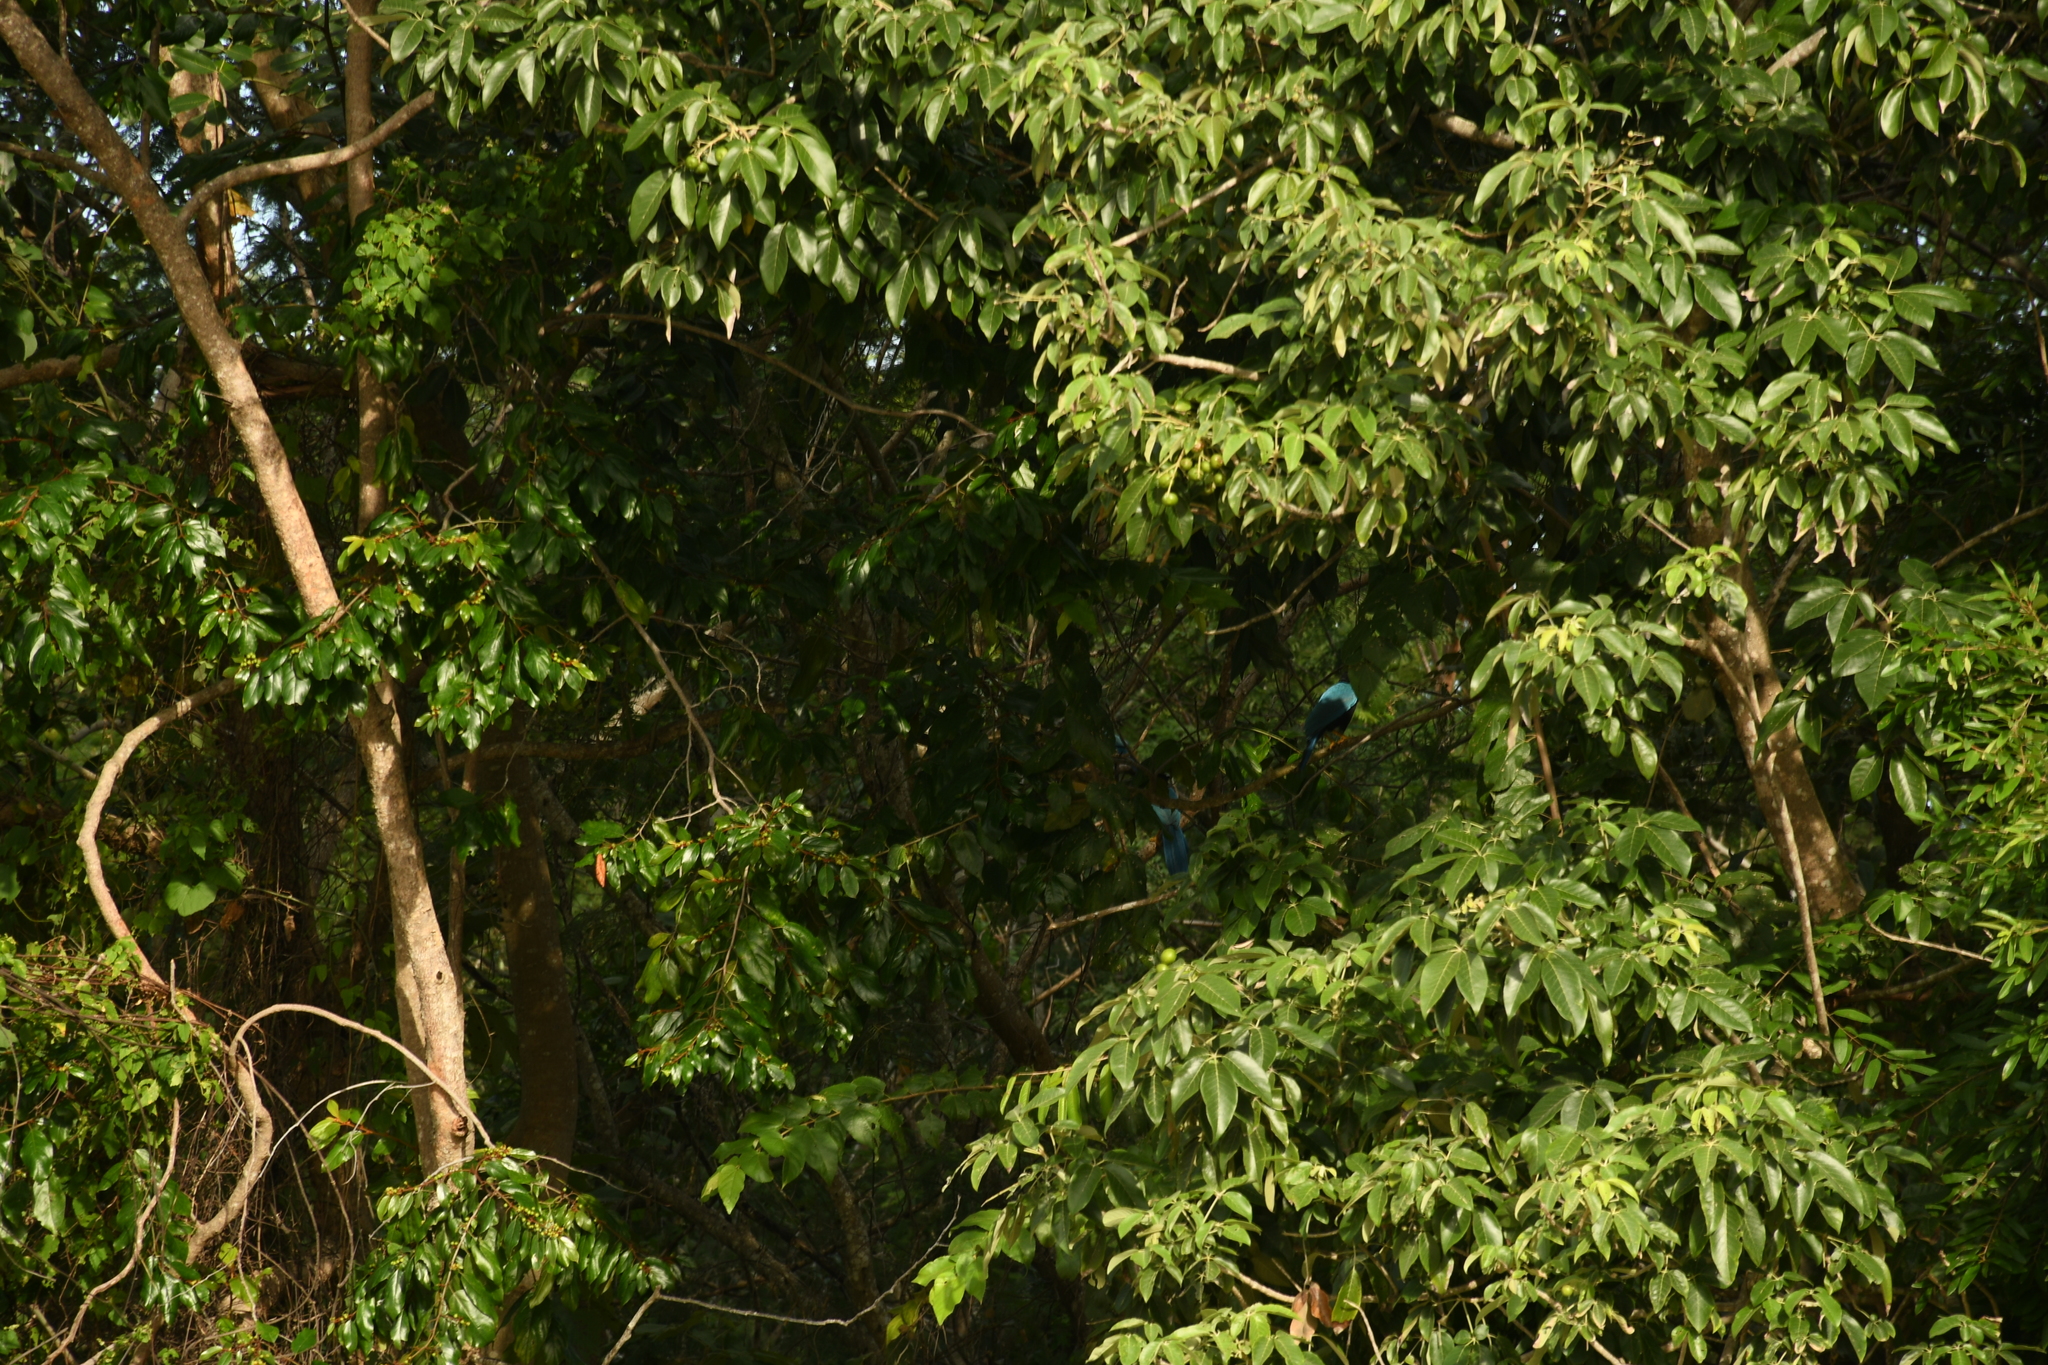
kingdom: Animalia
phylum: Chordata
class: Aves
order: Passeriformes
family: Corvidae
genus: Cyanocorax
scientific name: Cyanocorax yucatanicus
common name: Yucatan jay
